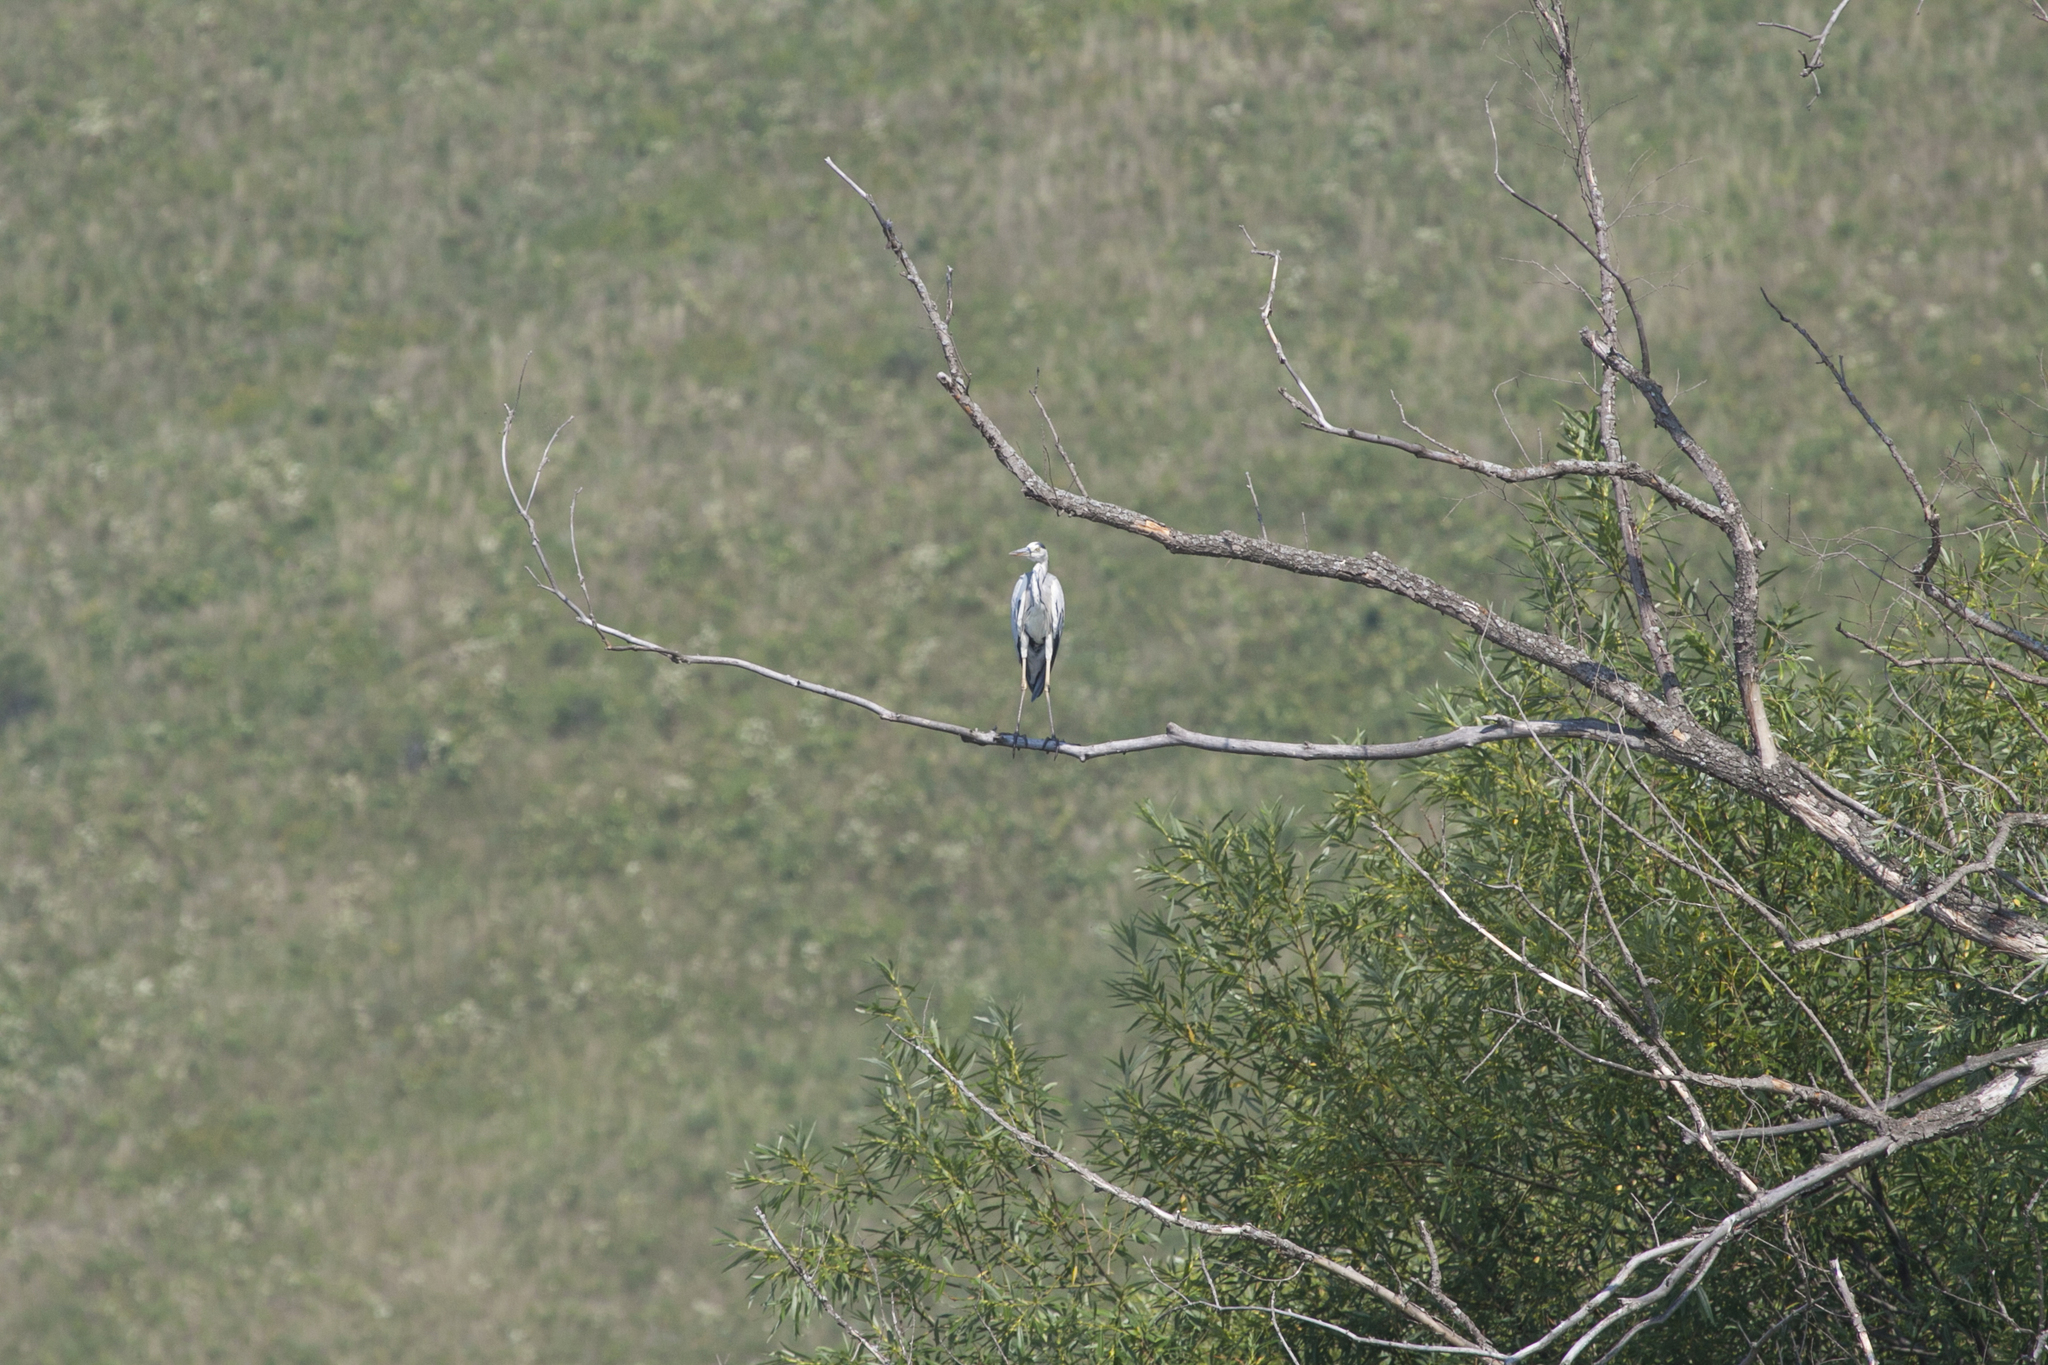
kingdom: Animalia
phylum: Chordata
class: Aves
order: Pelecaniformes
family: Ardeidae
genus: Ardea
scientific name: Ardea cinerea
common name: Grey heron
